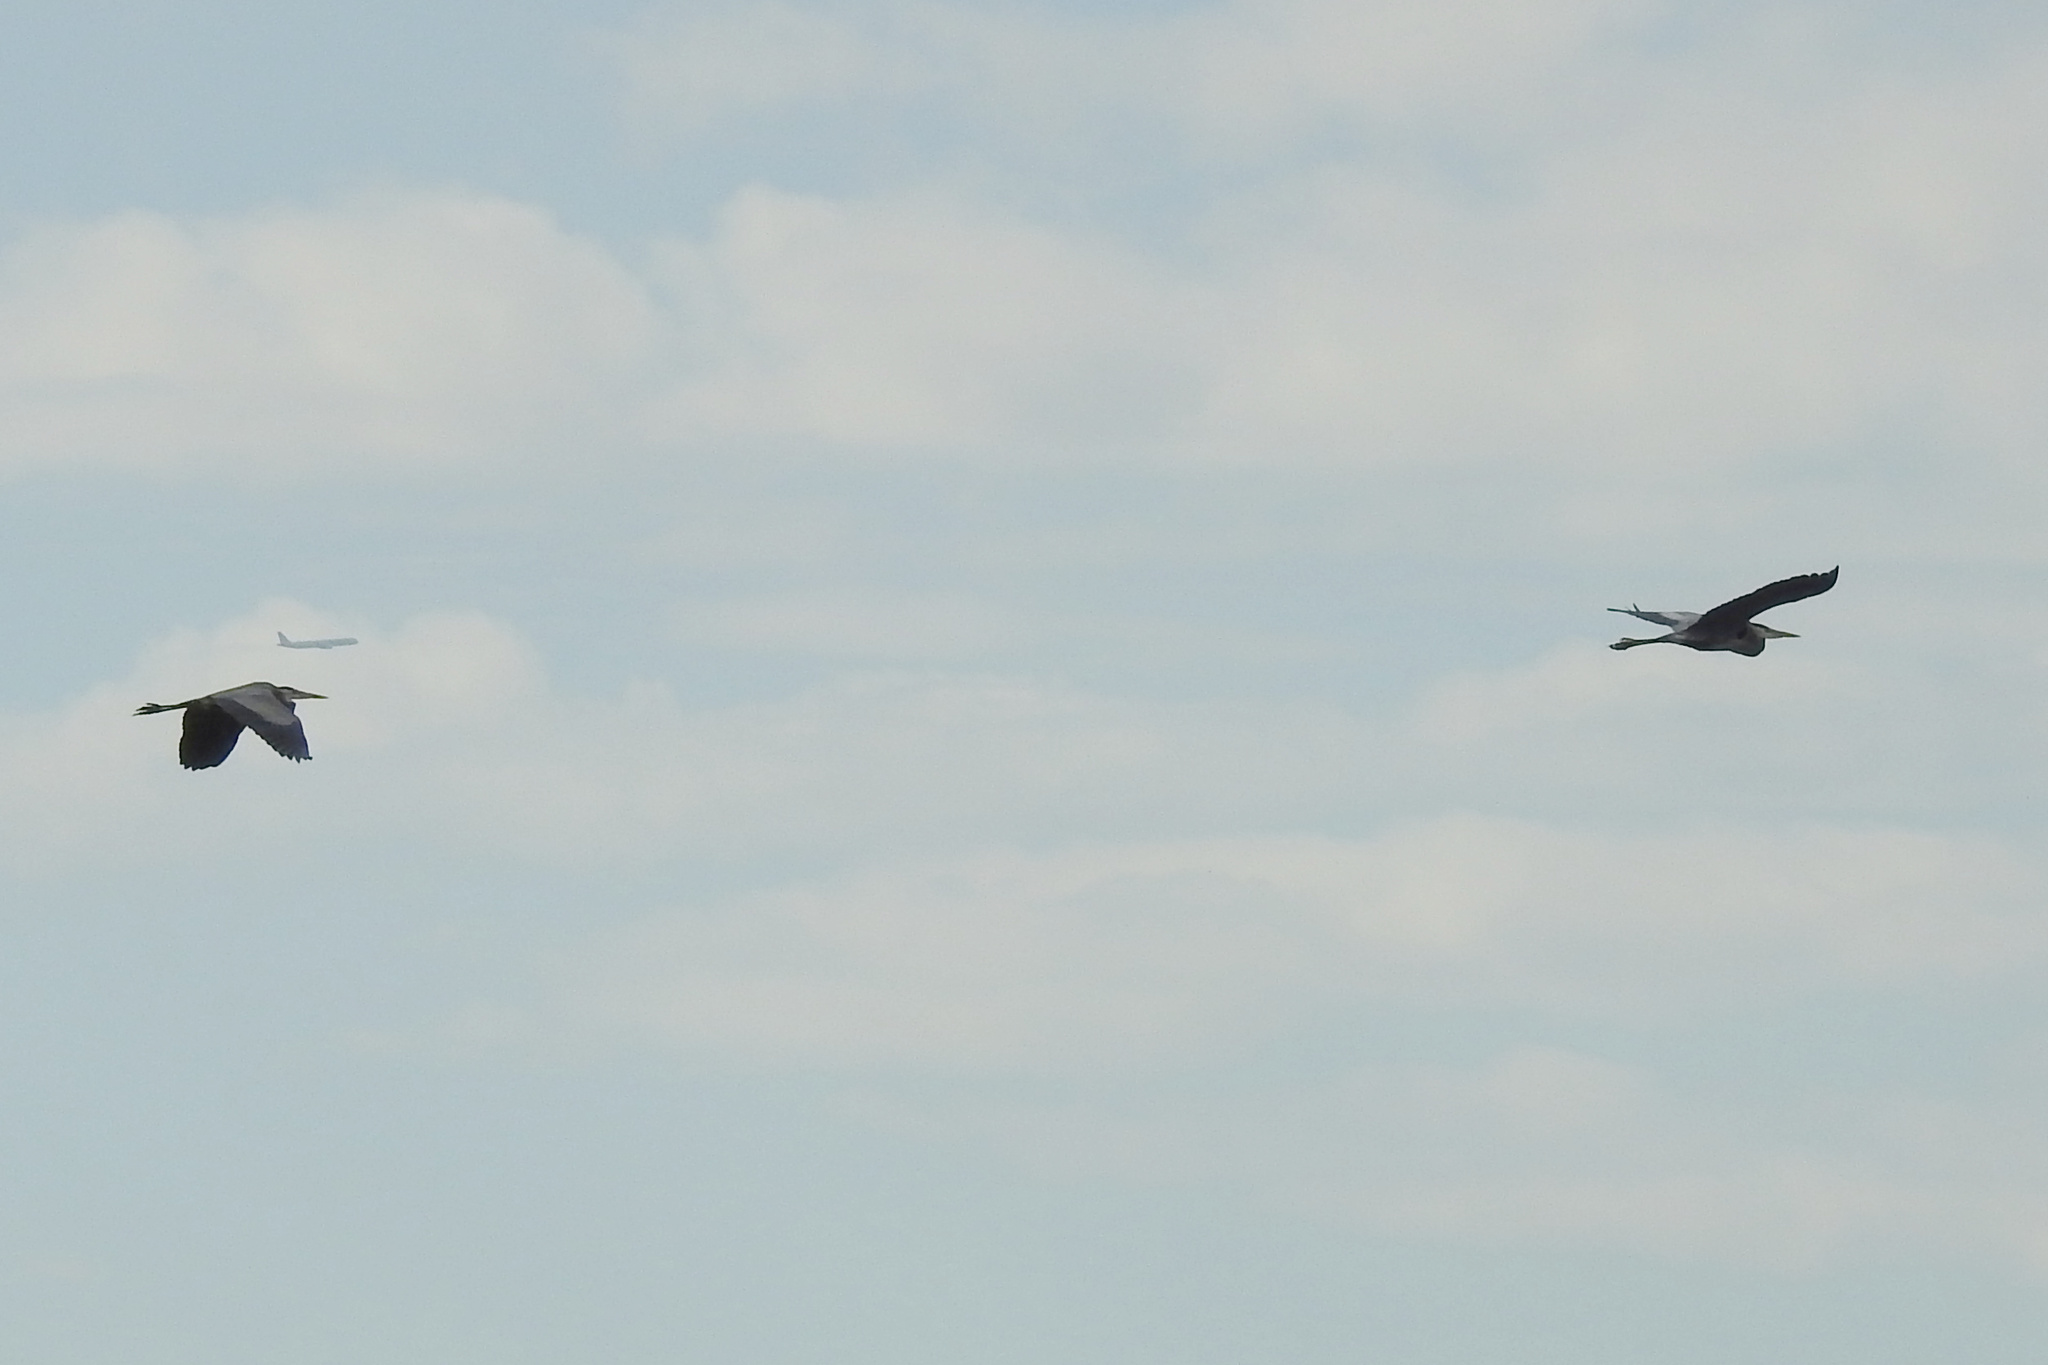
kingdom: Animalia
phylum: Chordata
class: Aves
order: Pelecaniformes
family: Ardeidae
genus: Ardea
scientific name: Ardea herodias
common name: Great blue heron
